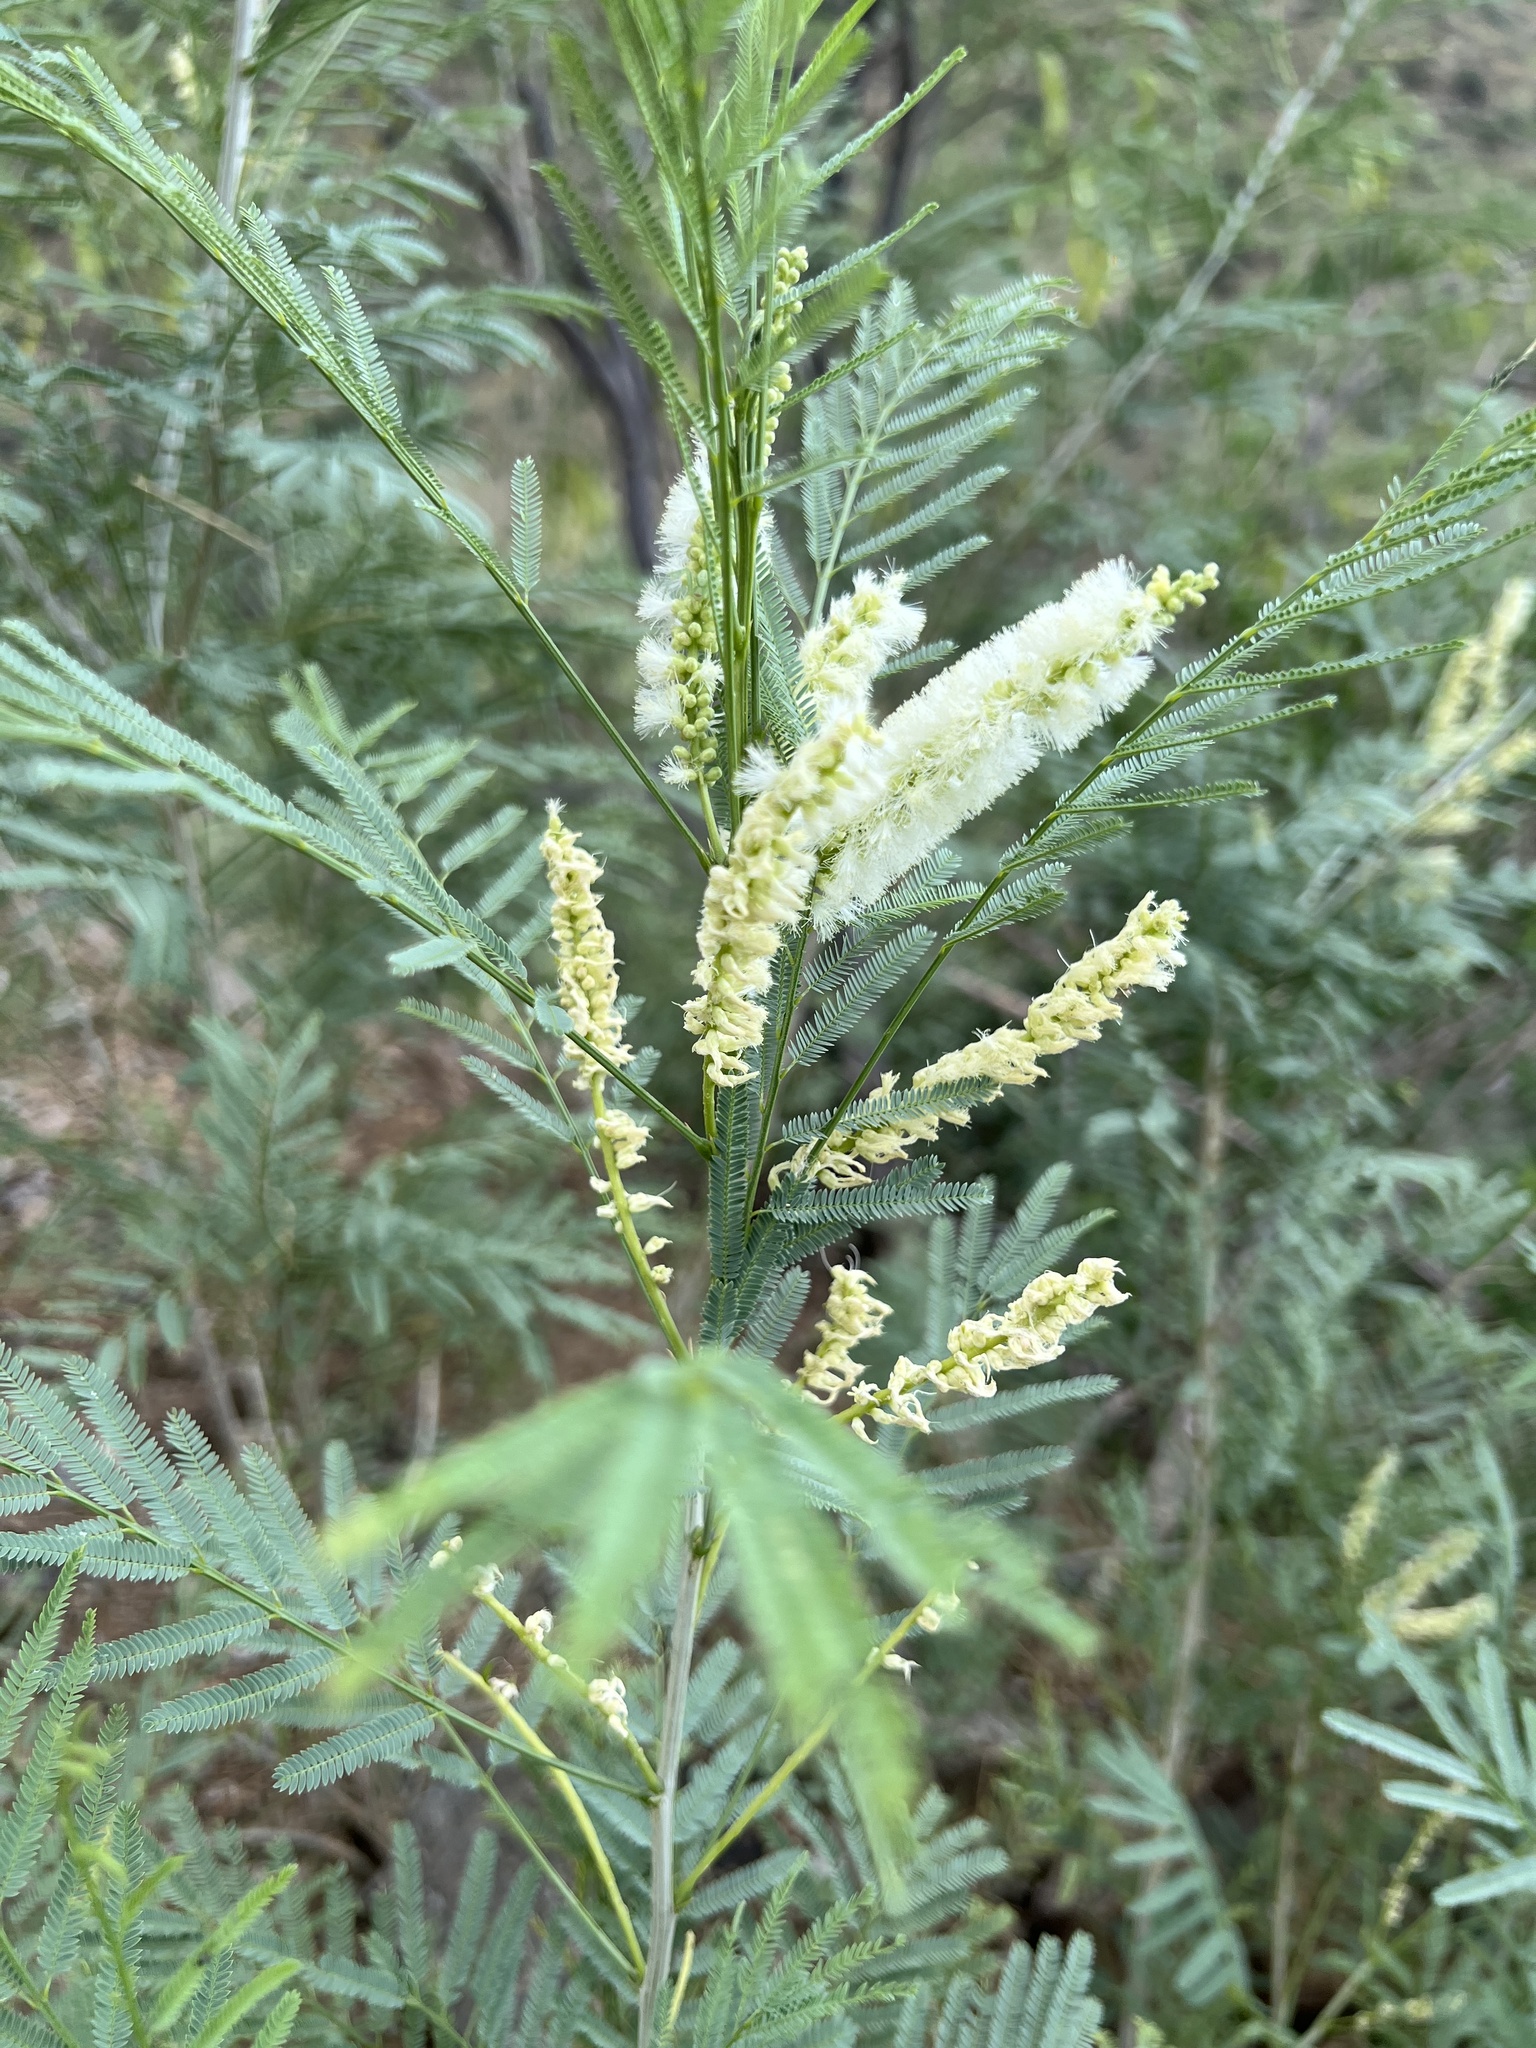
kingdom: Plantae
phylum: Tracheophyta
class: Magnoliopsida
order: Fabales
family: Fabaceae
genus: Mariosousa
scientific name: Mariosousa millefolia
